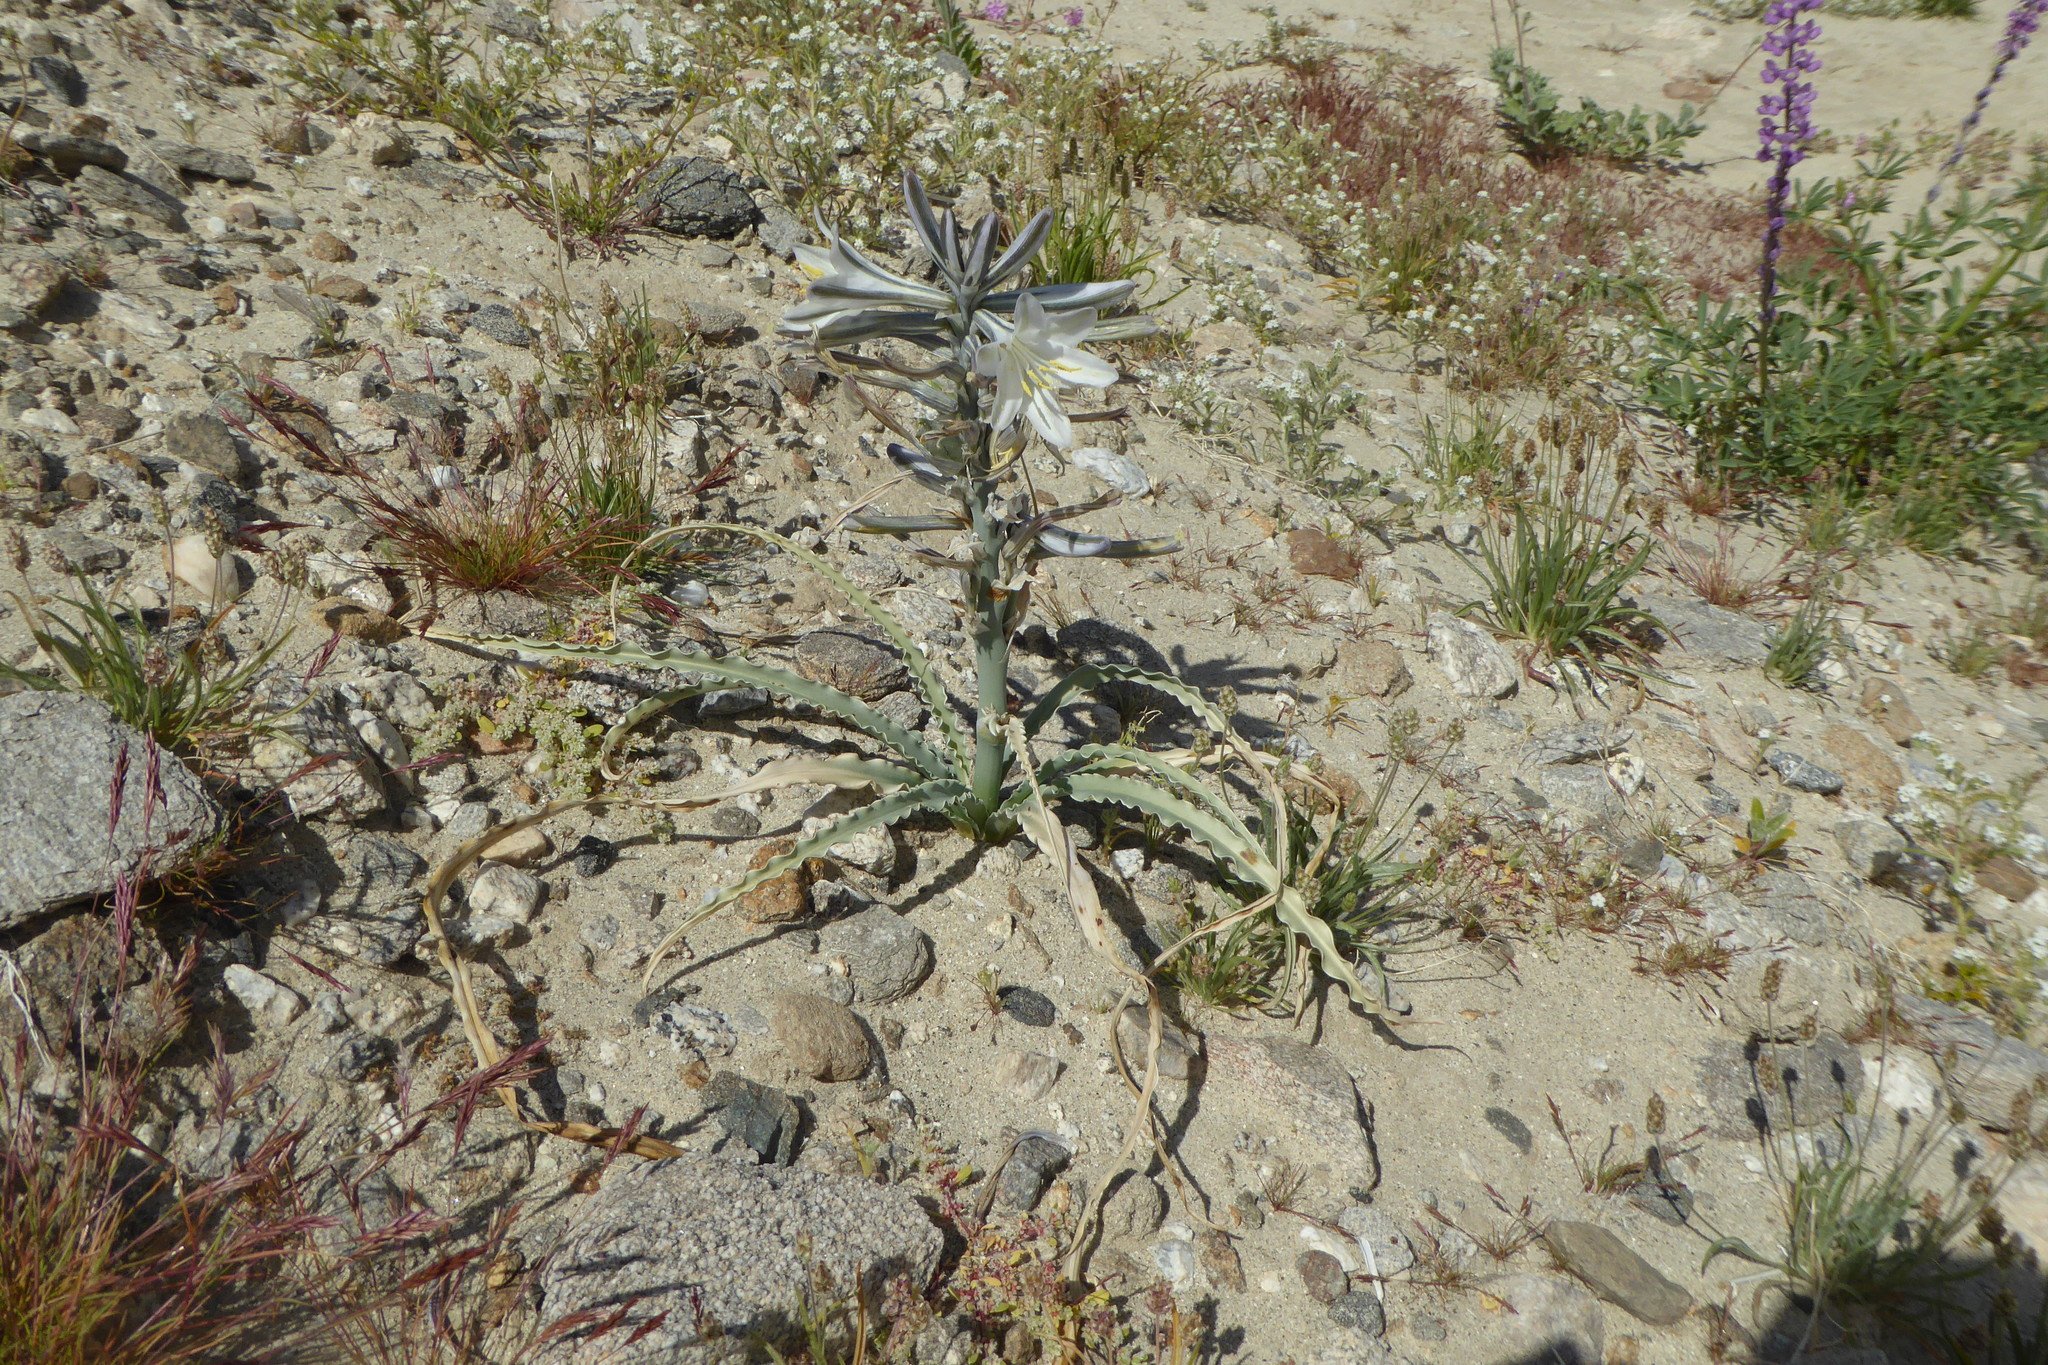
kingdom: Plantae
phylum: Tracheophyta
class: Liliopsida
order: Asparagales
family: Asparagaceae
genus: Hesperocallis
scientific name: Hesperocallis undulata
